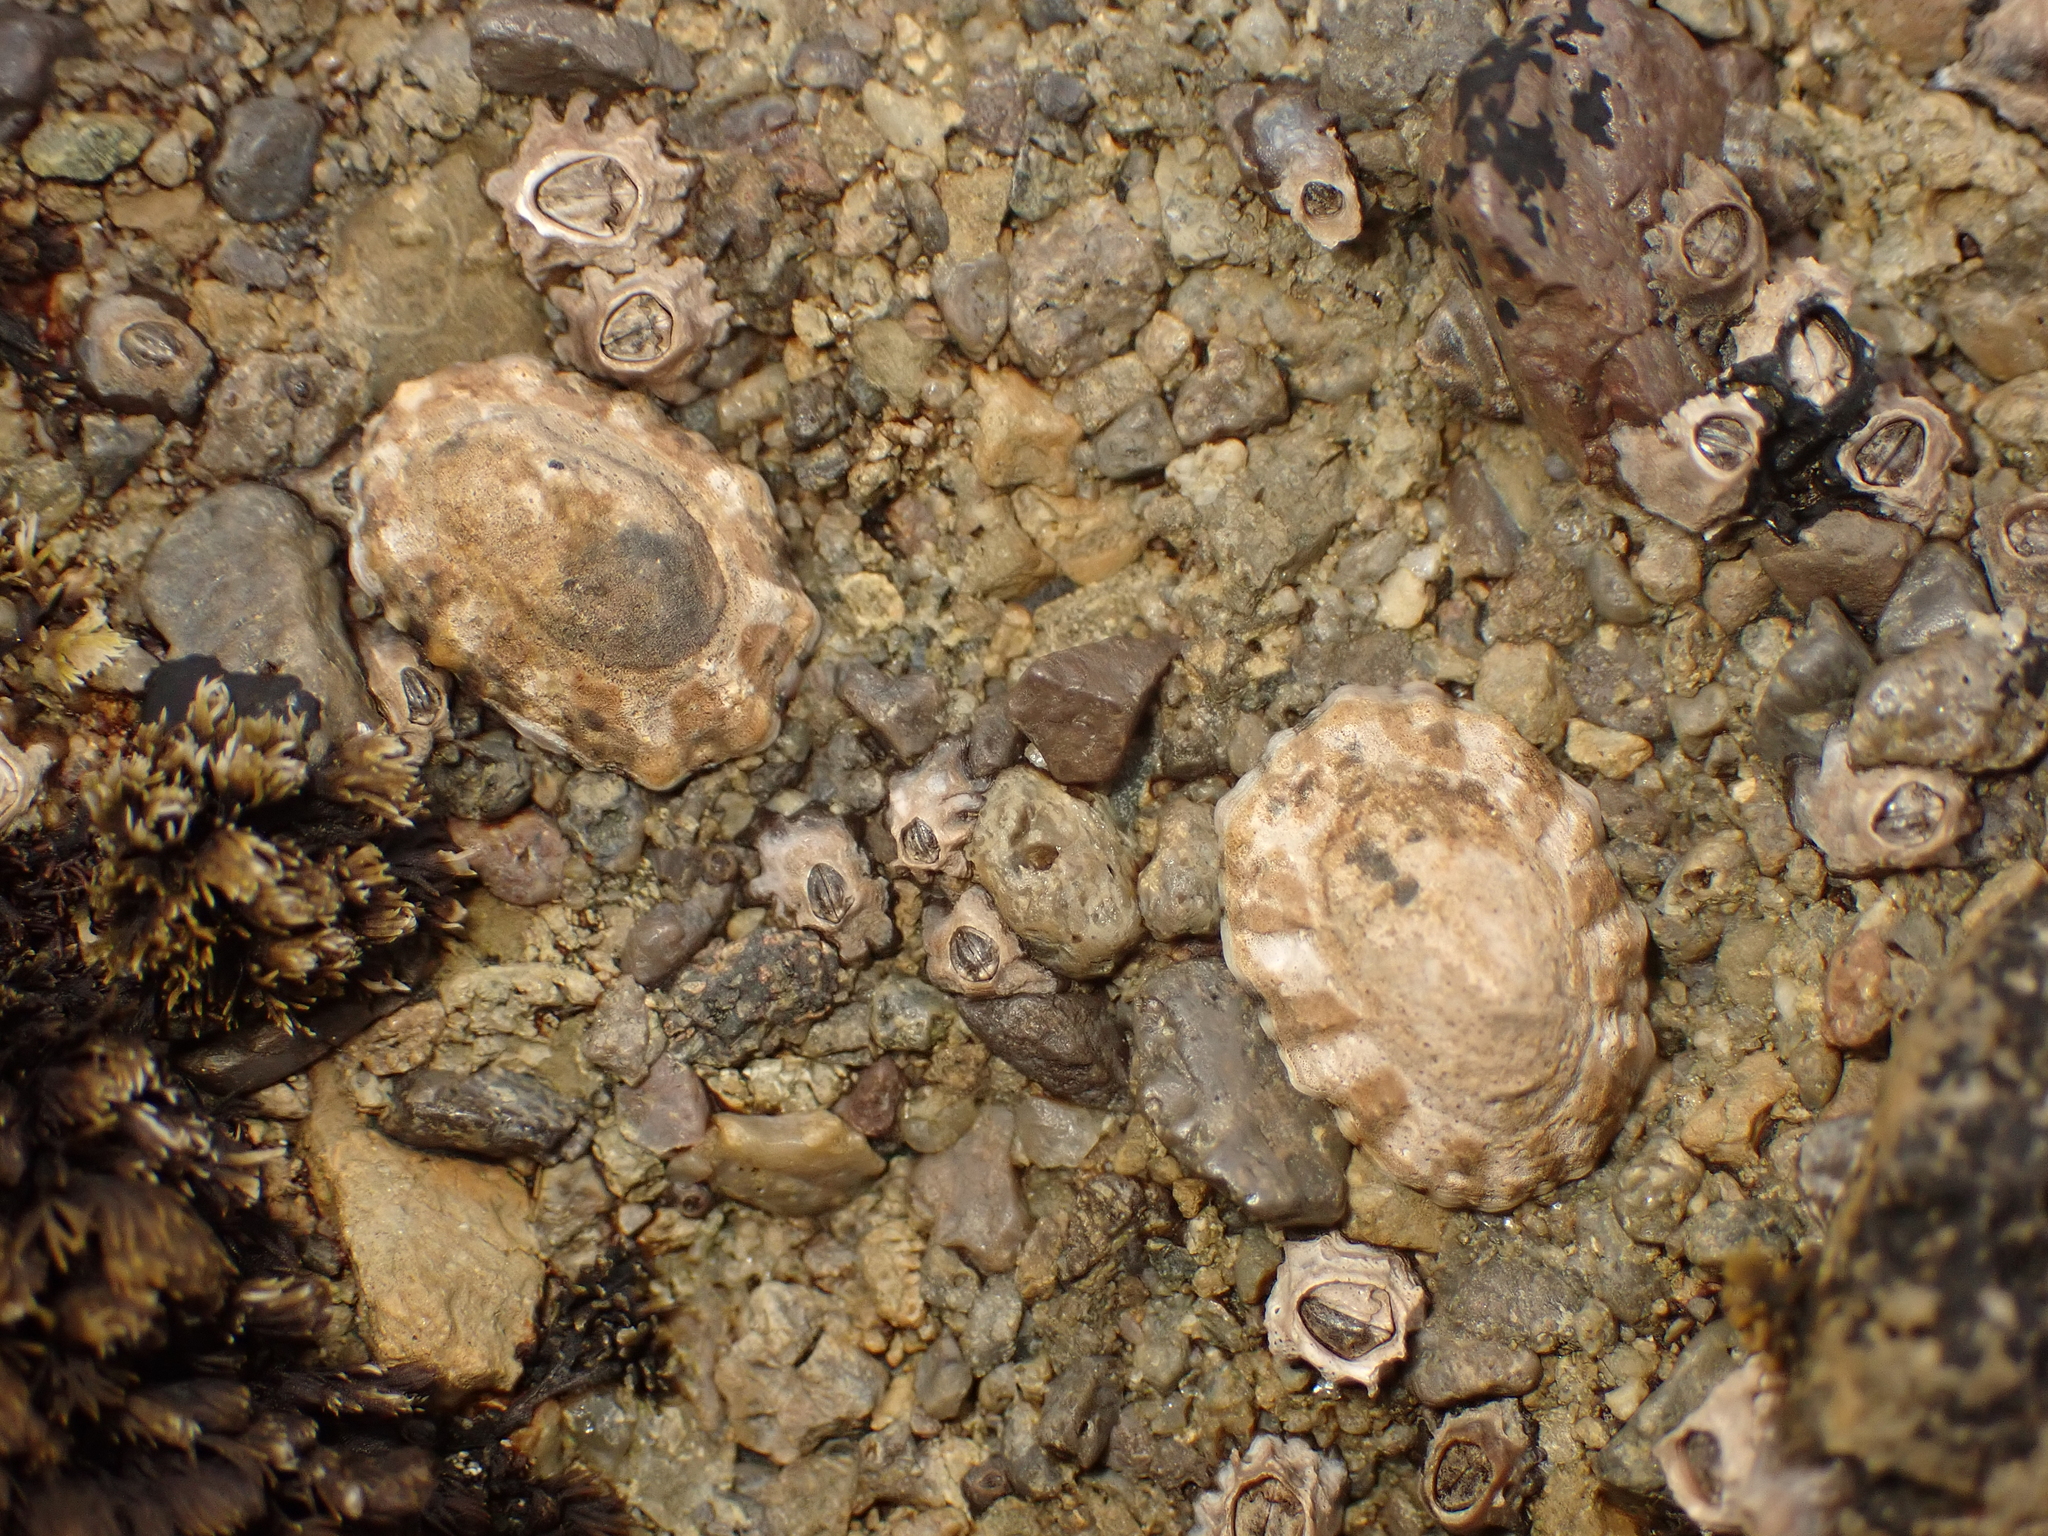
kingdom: Animalia
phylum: Mollusca
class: Gastropoda
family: Nacellidae
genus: Cellana
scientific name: Cellana ornata
